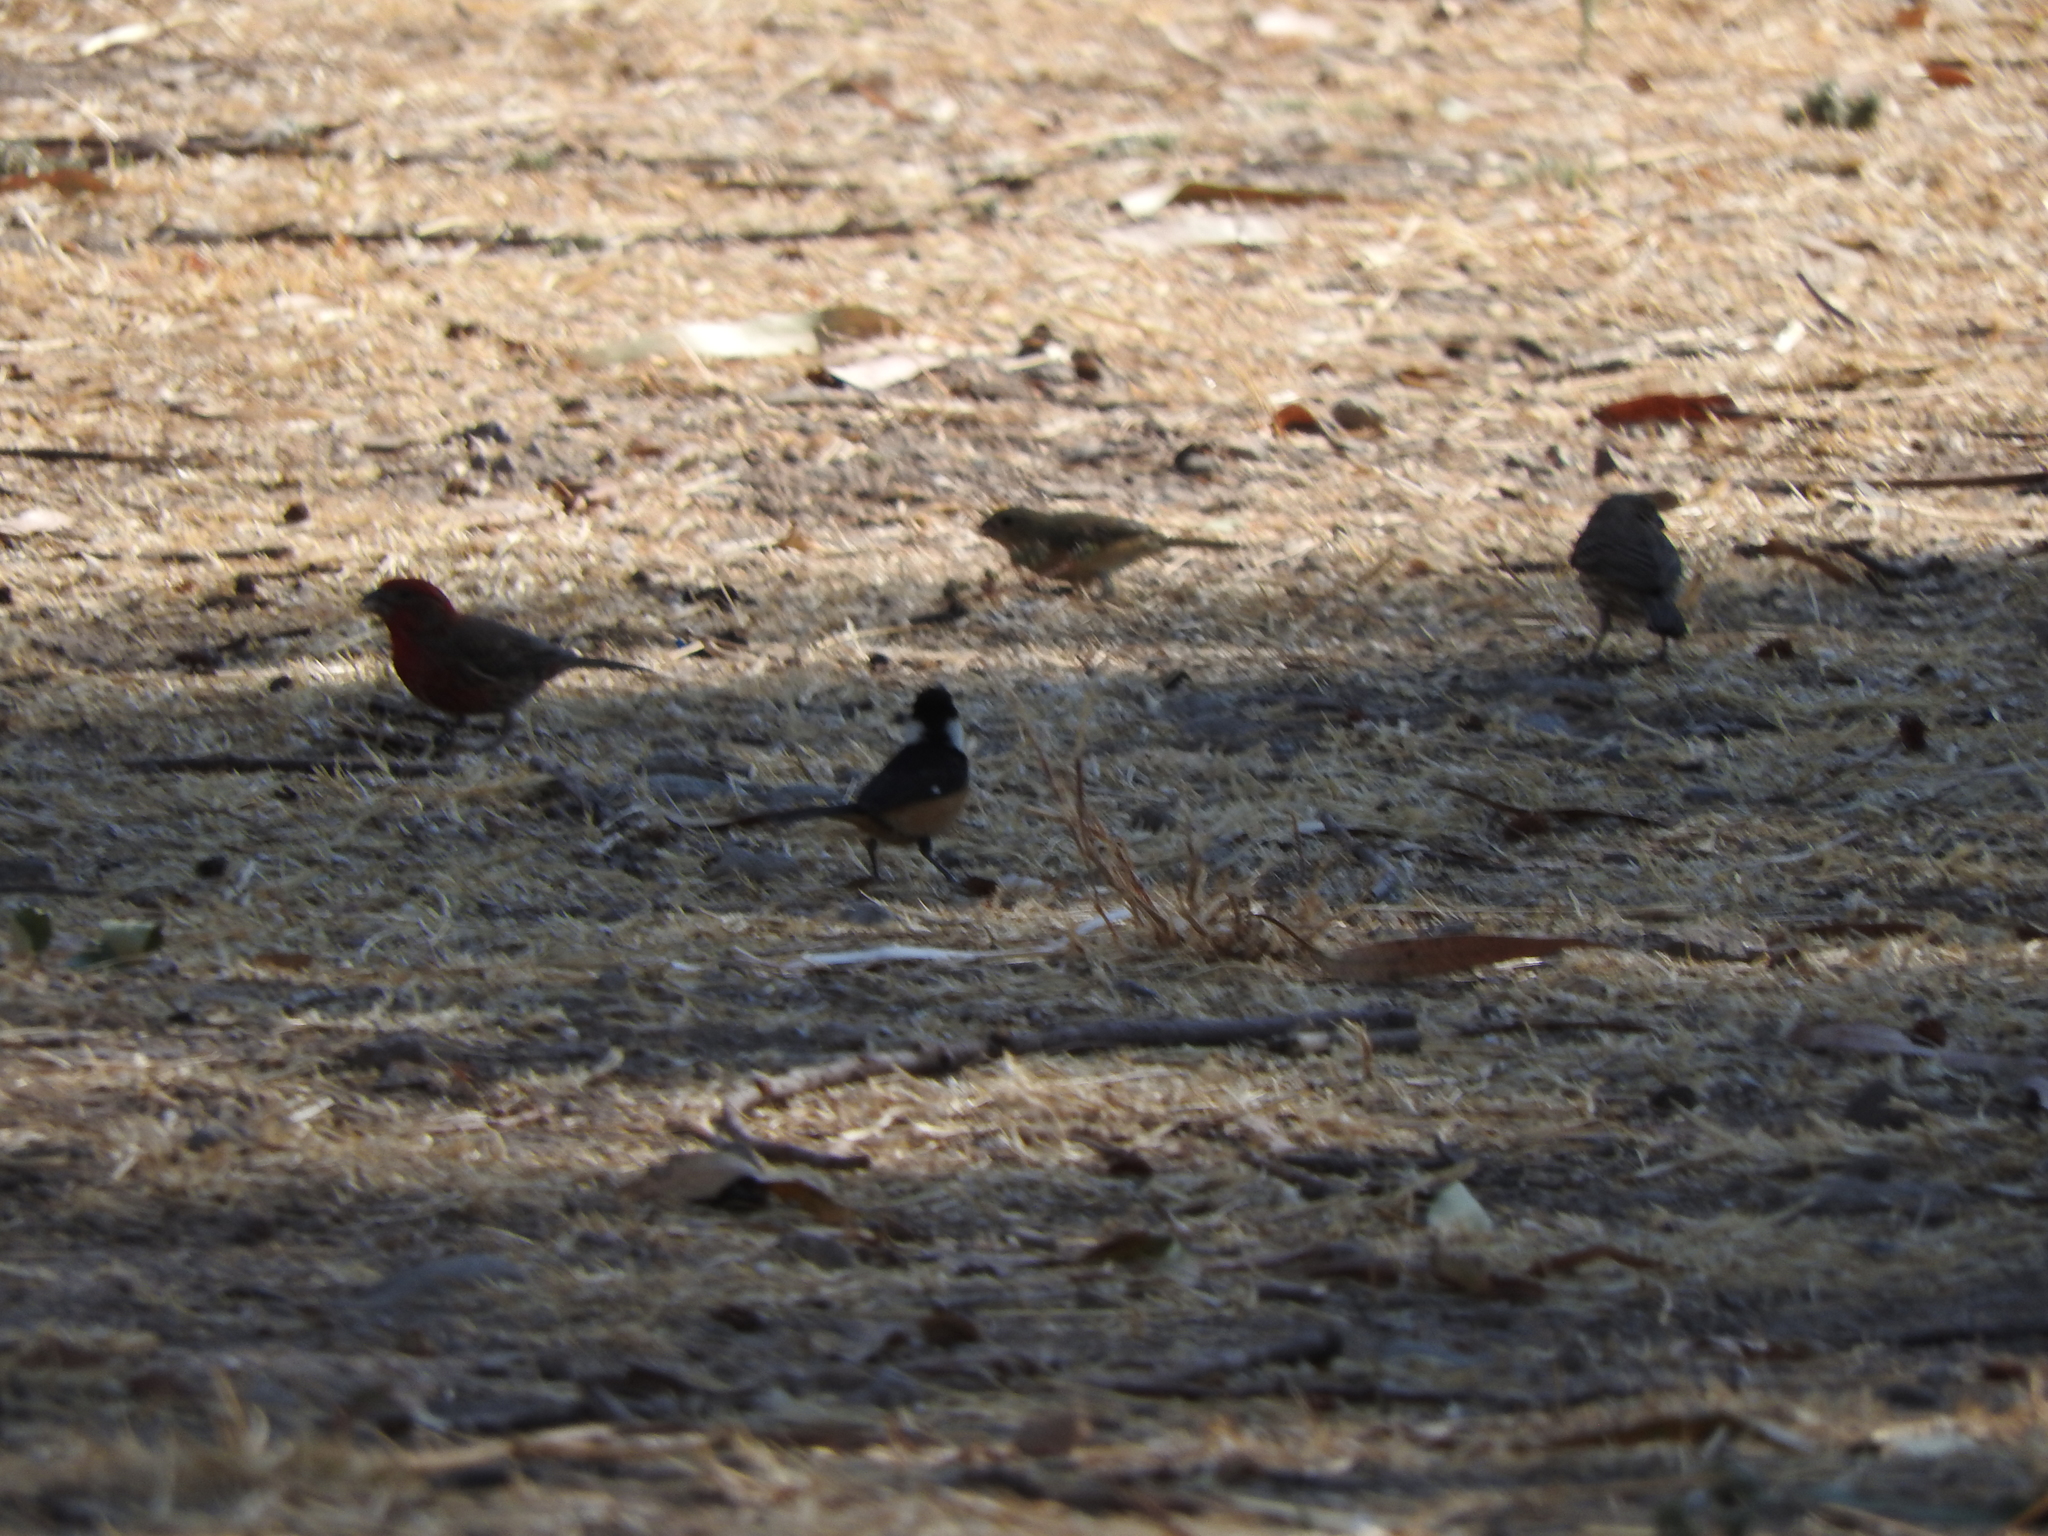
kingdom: Animalia
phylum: Chordata
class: Aves
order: Passeriformes
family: Fringillidae
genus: Haemorhous
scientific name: Haemorhous mexicanus
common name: House finch
